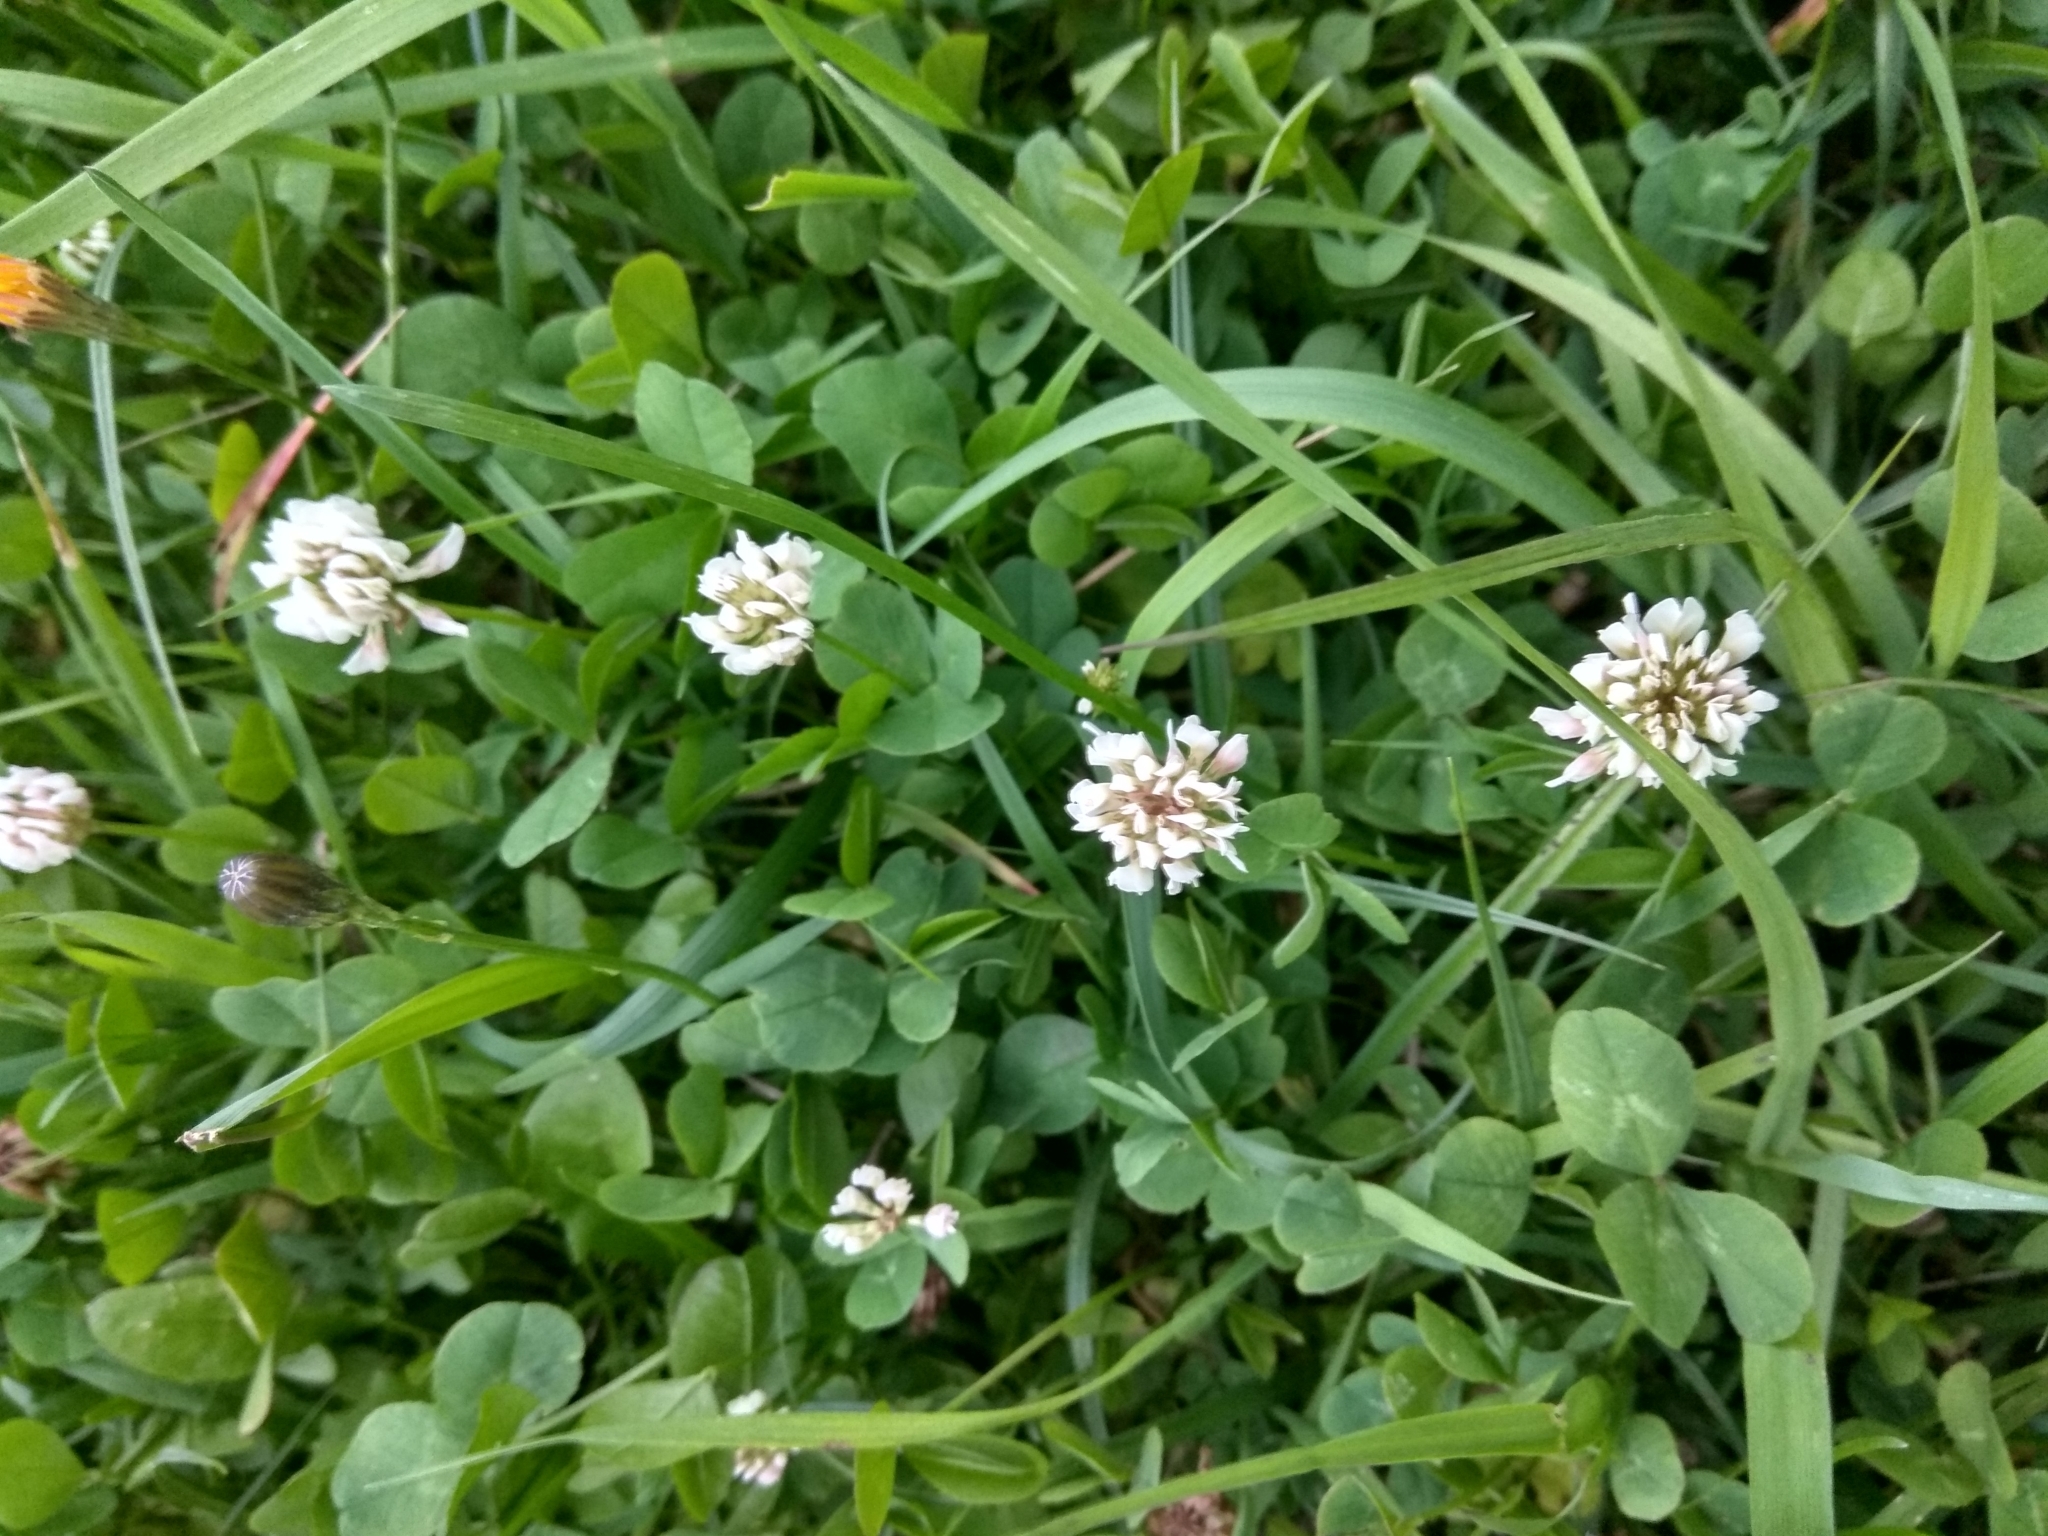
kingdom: Plantae
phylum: Tracheophyta
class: Magnoliopsida
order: Fabales
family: Fabaceae
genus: Trifolium
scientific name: Trifolium repens
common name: White clover
